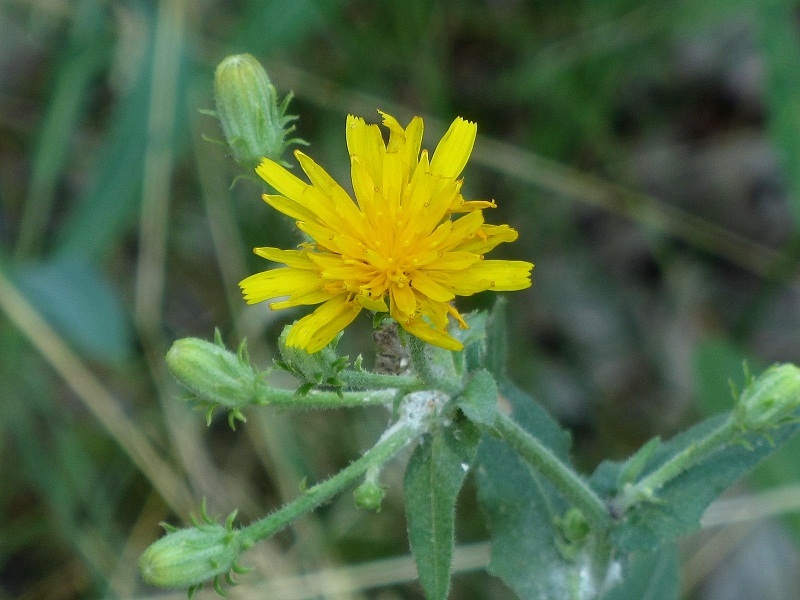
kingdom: Plantae
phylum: Tracheophyta
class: Magnoliopsida
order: Asterales
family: Asteraceae
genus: Picris
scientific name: Picris hieracioides
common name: Hawkweed oxtongue
